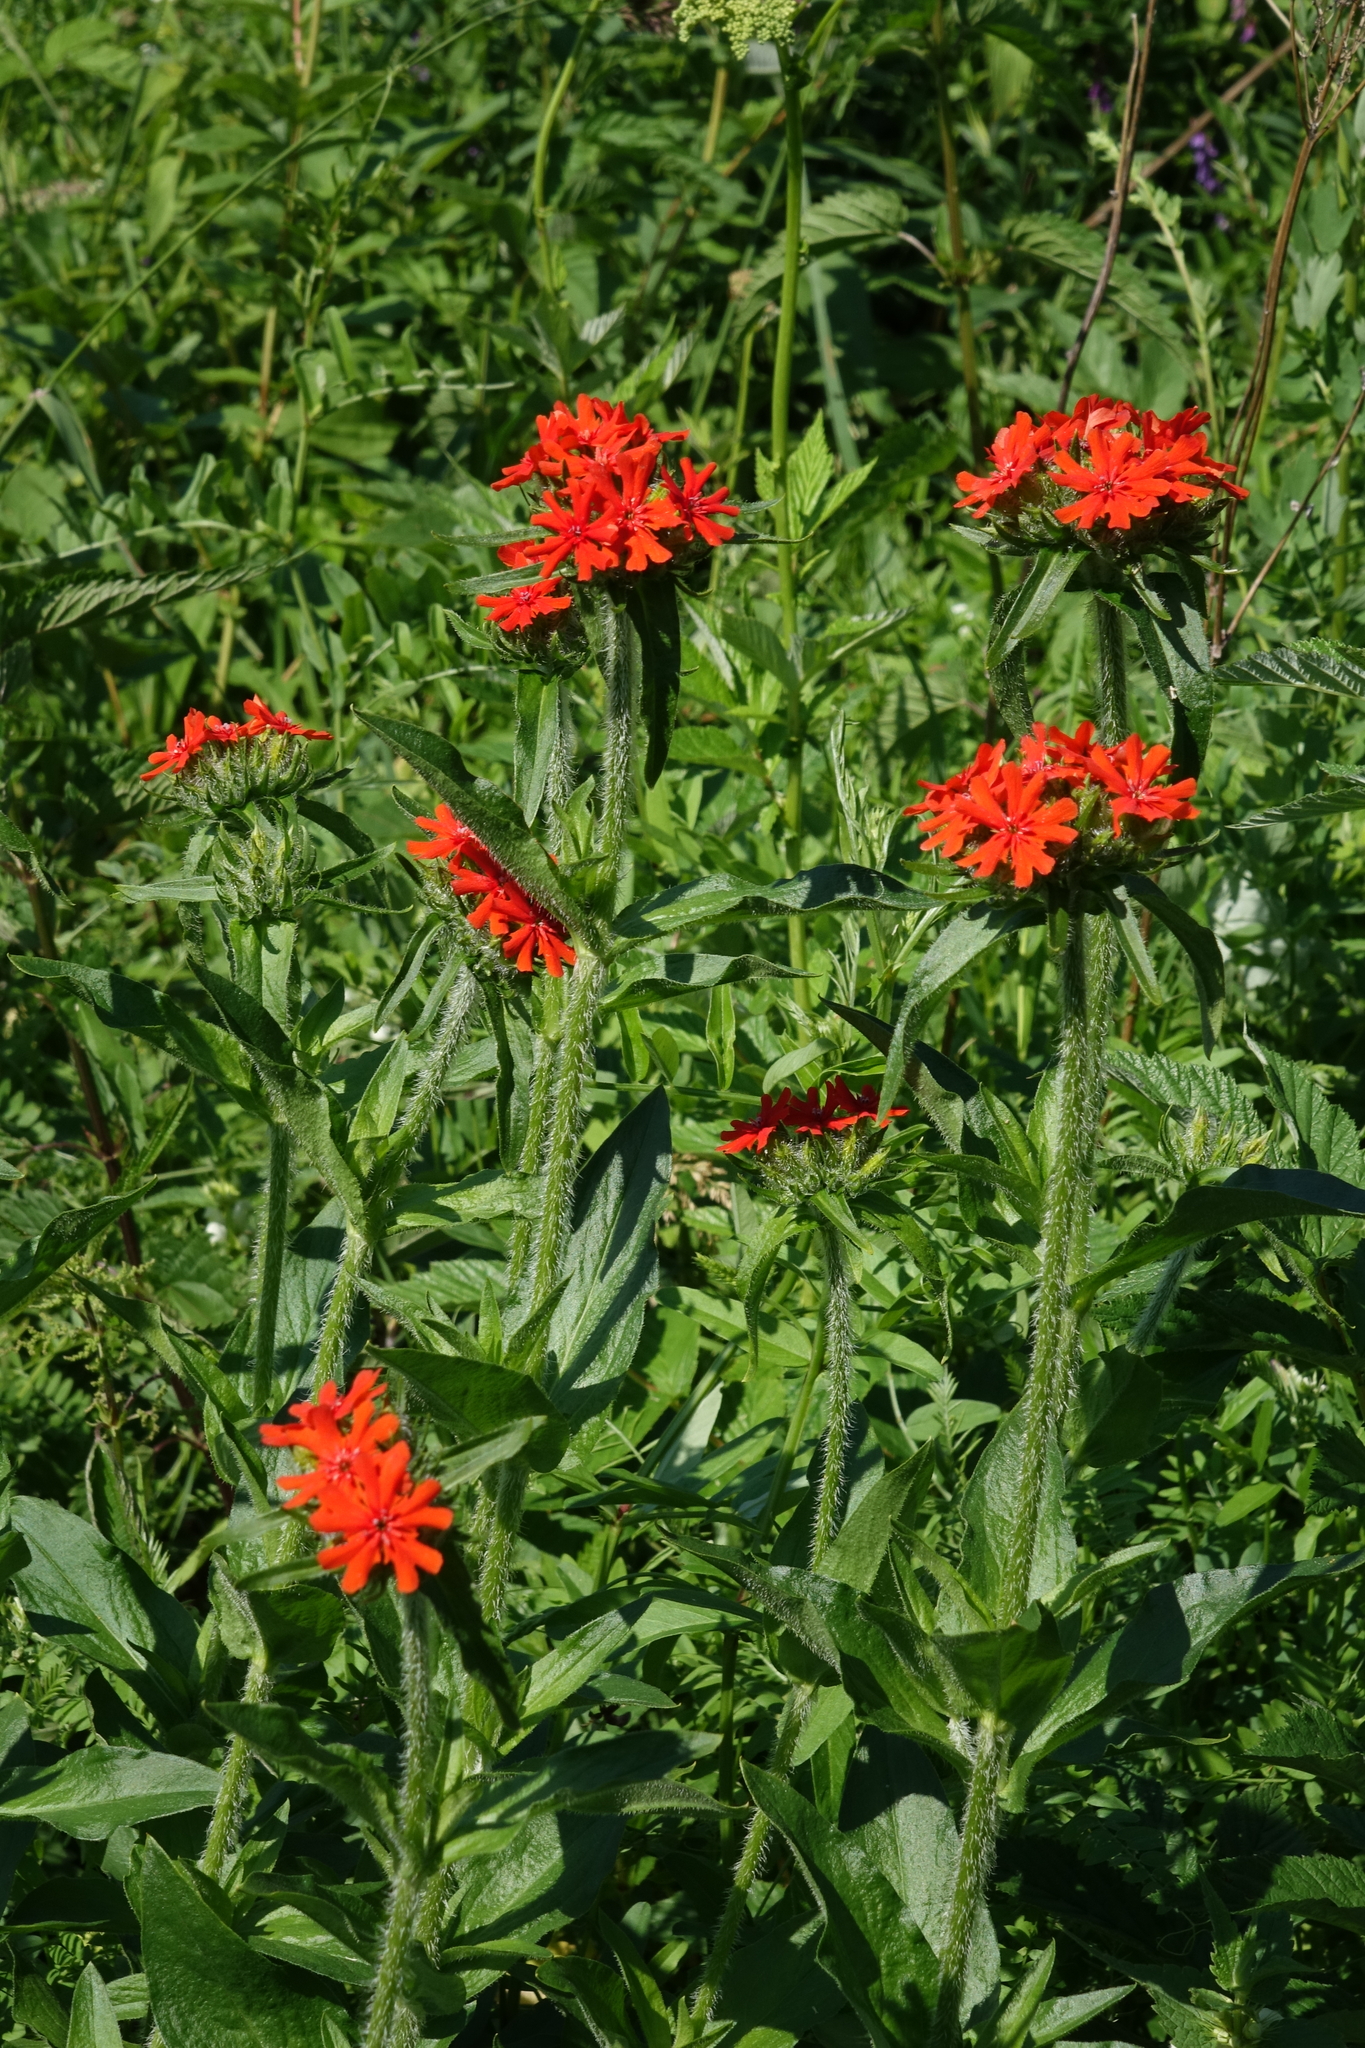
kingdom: Plantae
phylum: Tracheophyta
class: Magnoliopsida
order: Caryophyllales
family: Caryophyllaceae
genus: Silene
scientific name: Silene chalcedonica
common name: Maltese-cross
